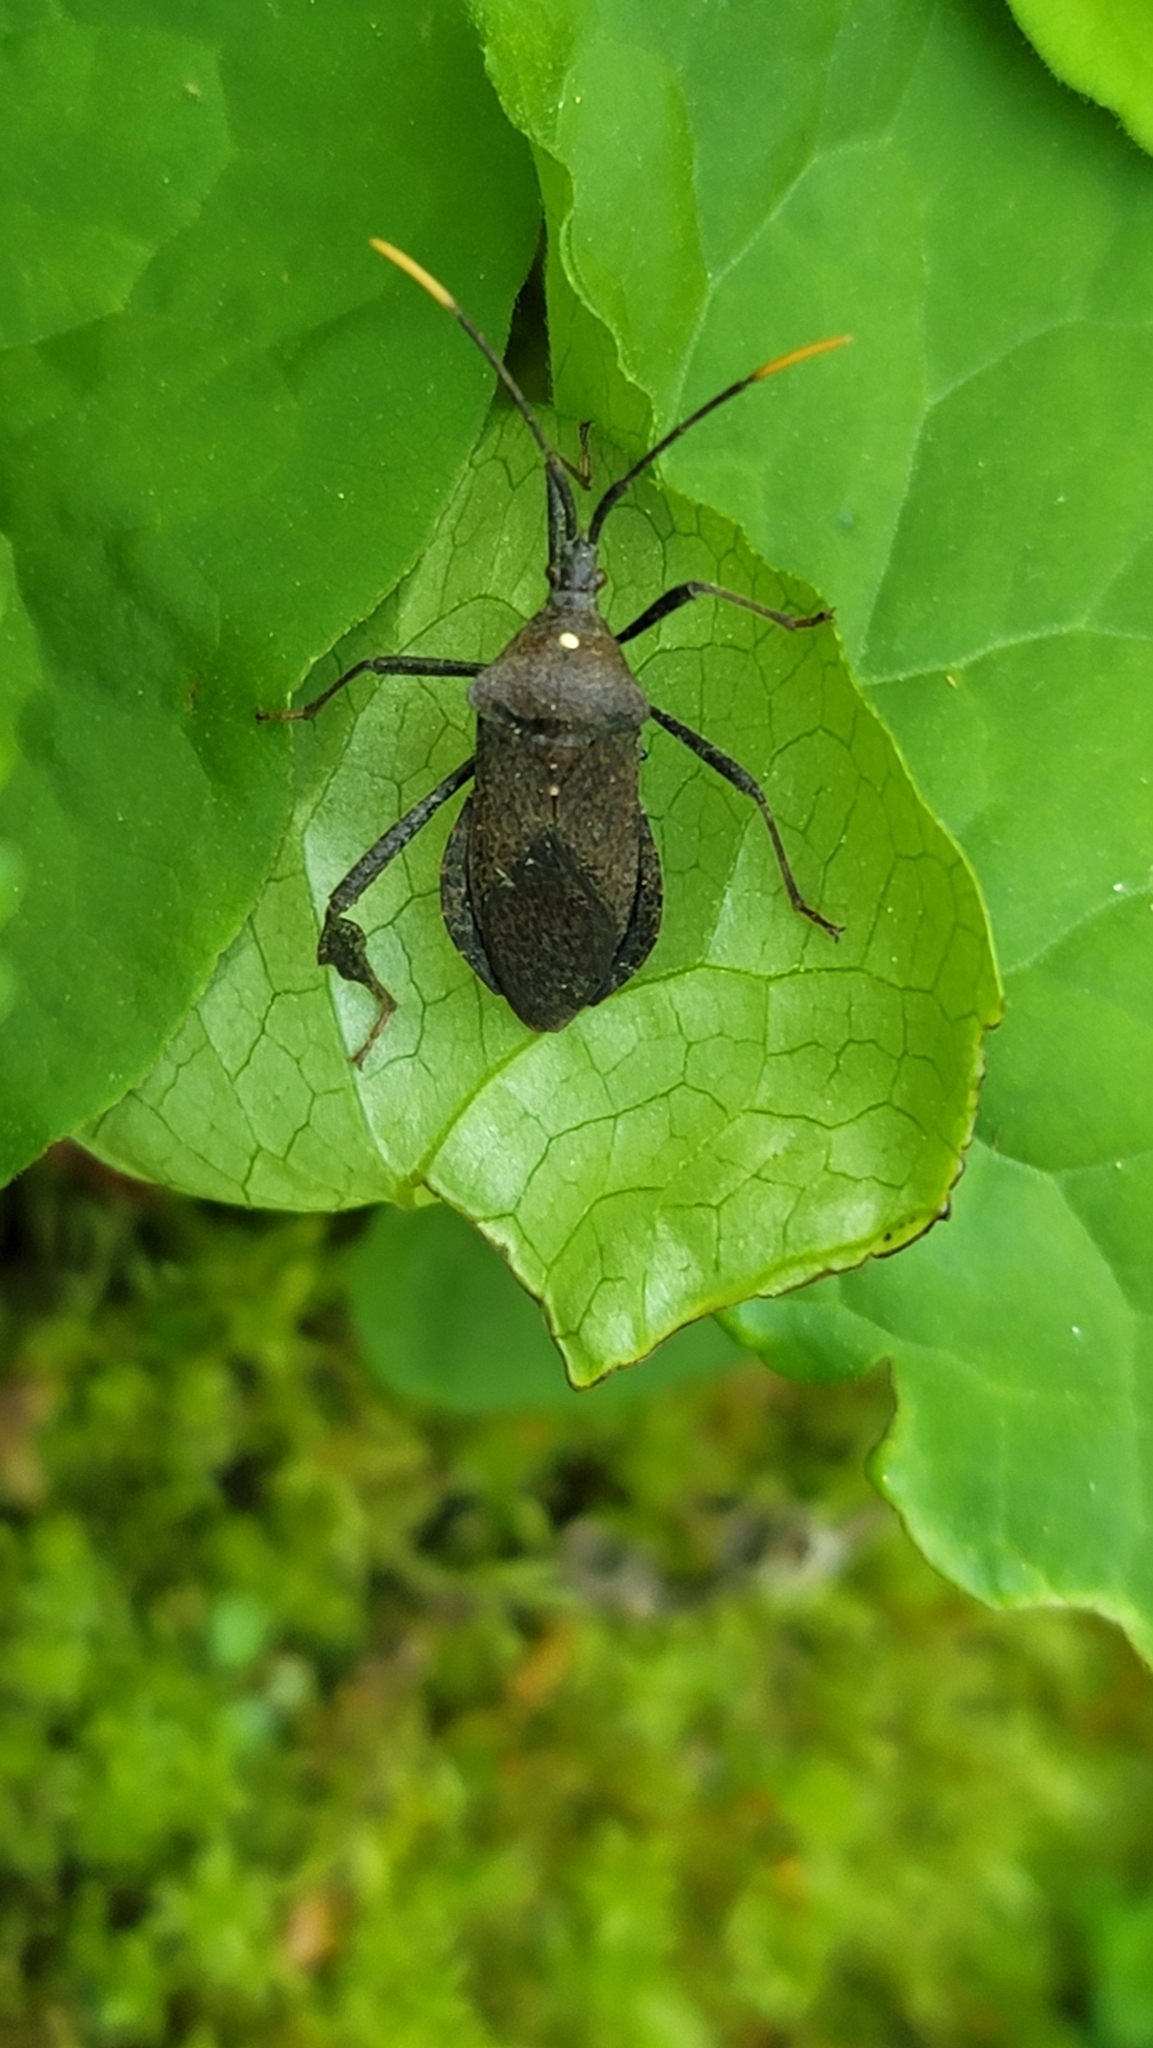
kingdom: Animalia
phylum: Arthropoda
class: Insecta
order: Hemiptera
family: Coreidae
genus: Acanthocephala
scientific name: Acanthocephala terminalis
